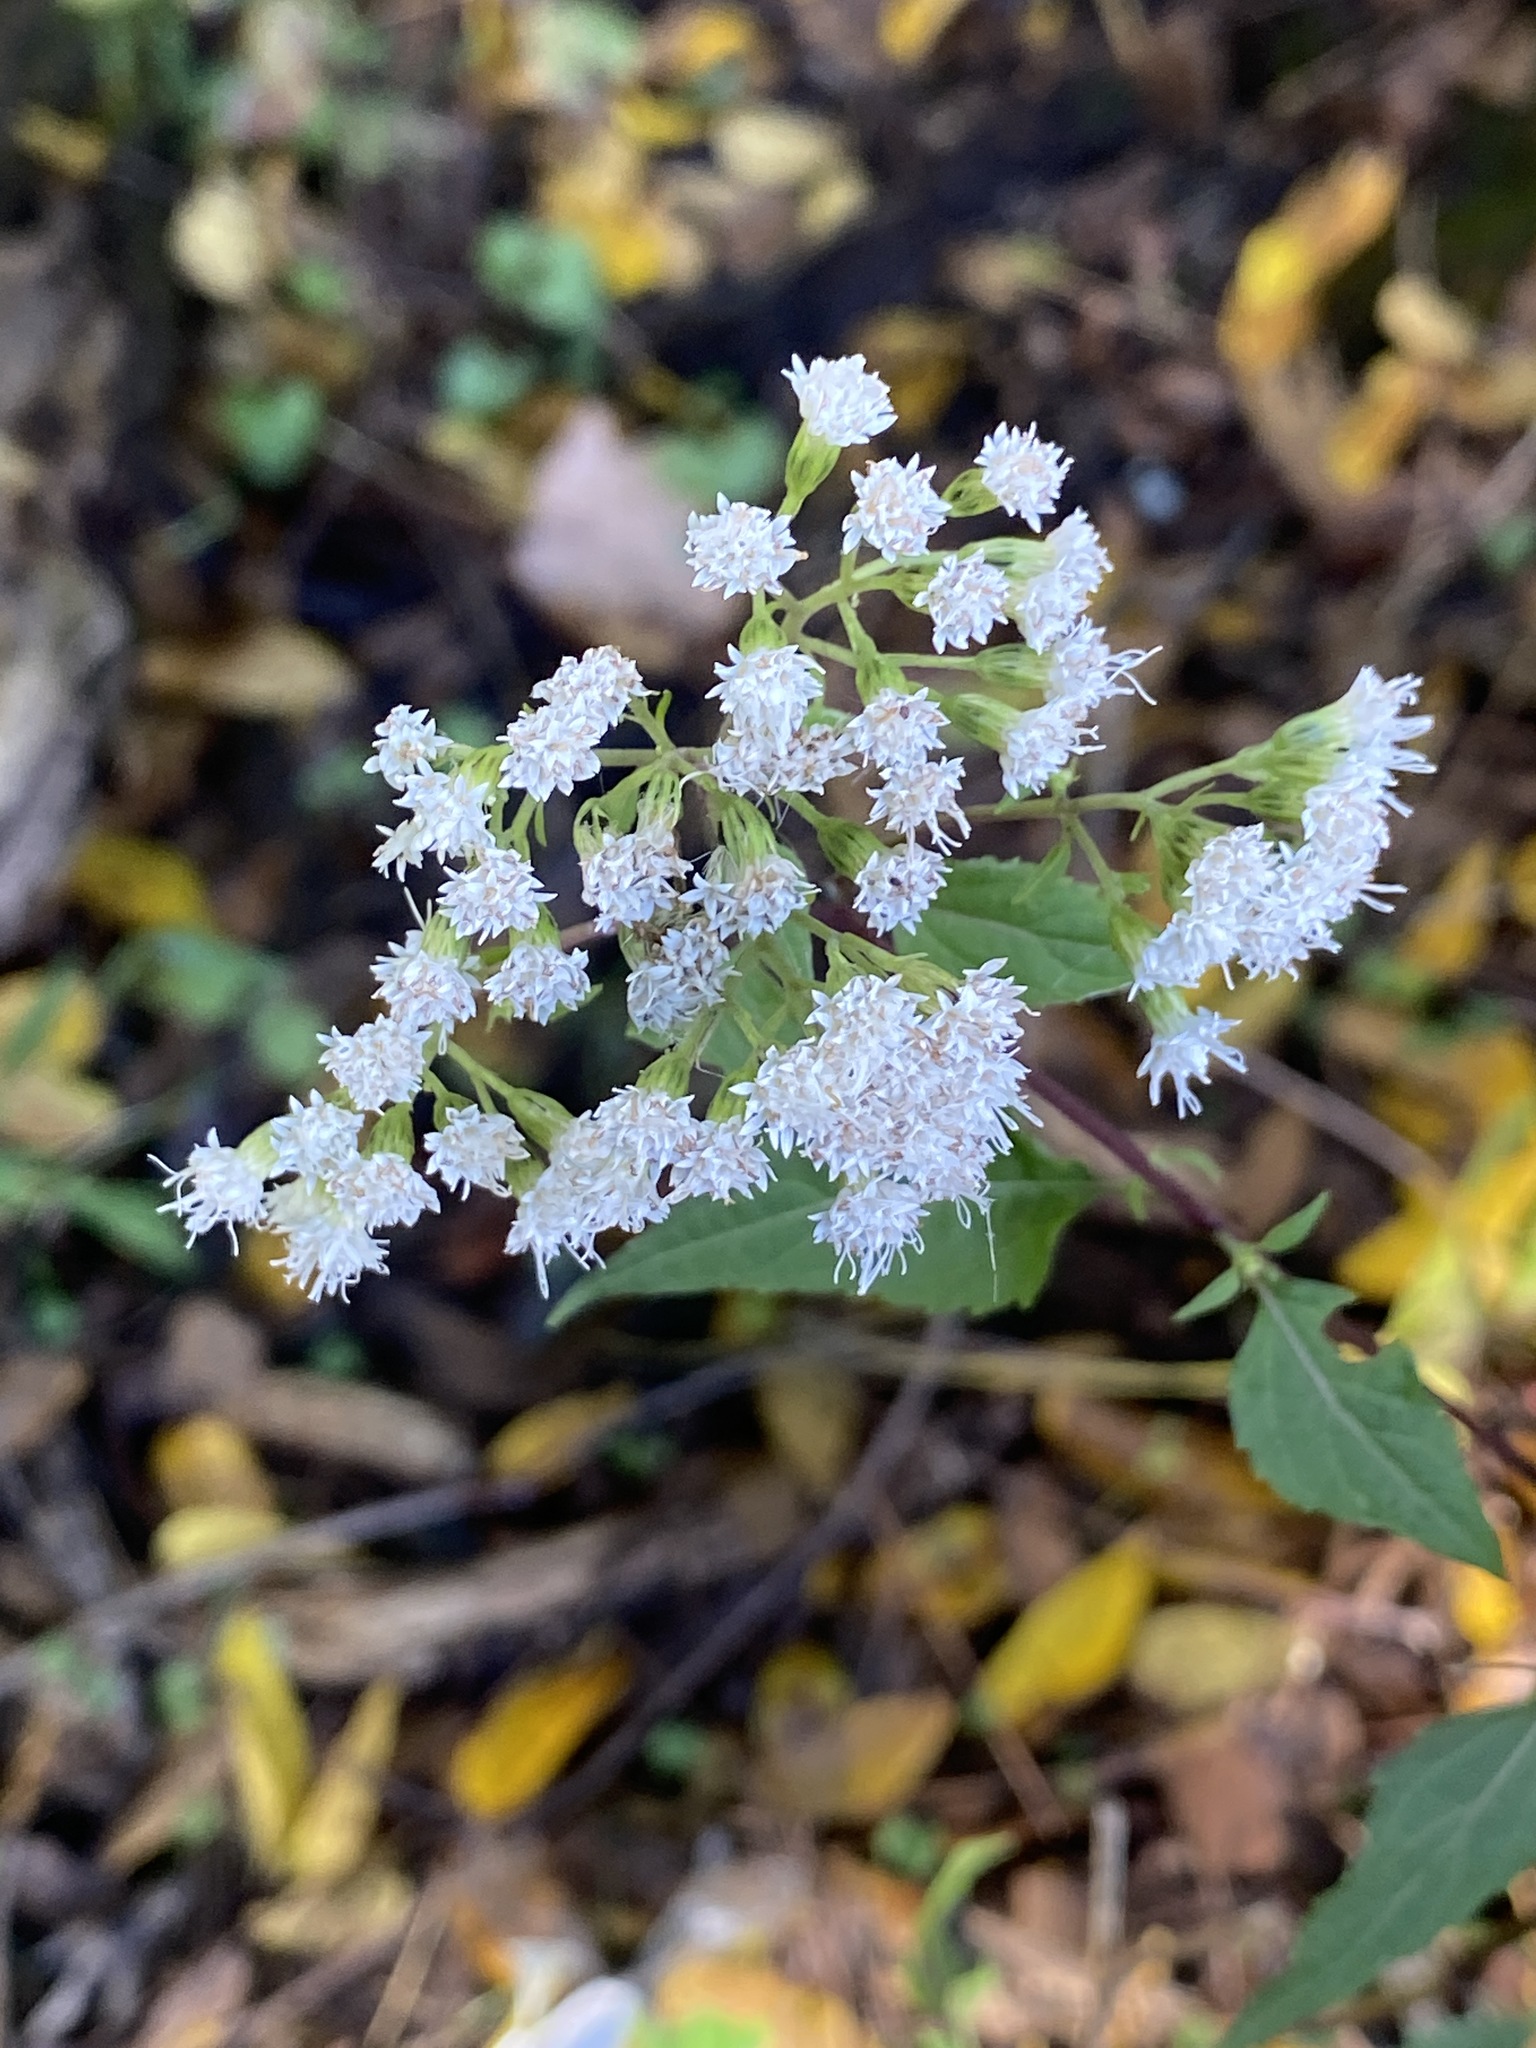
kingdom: Plantae
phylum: Tracheophyta
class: Magnoliopsida
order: Asterales
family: Asteraceae
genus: Ageratina
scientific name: Ageratina altissima
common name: White snakeroot
